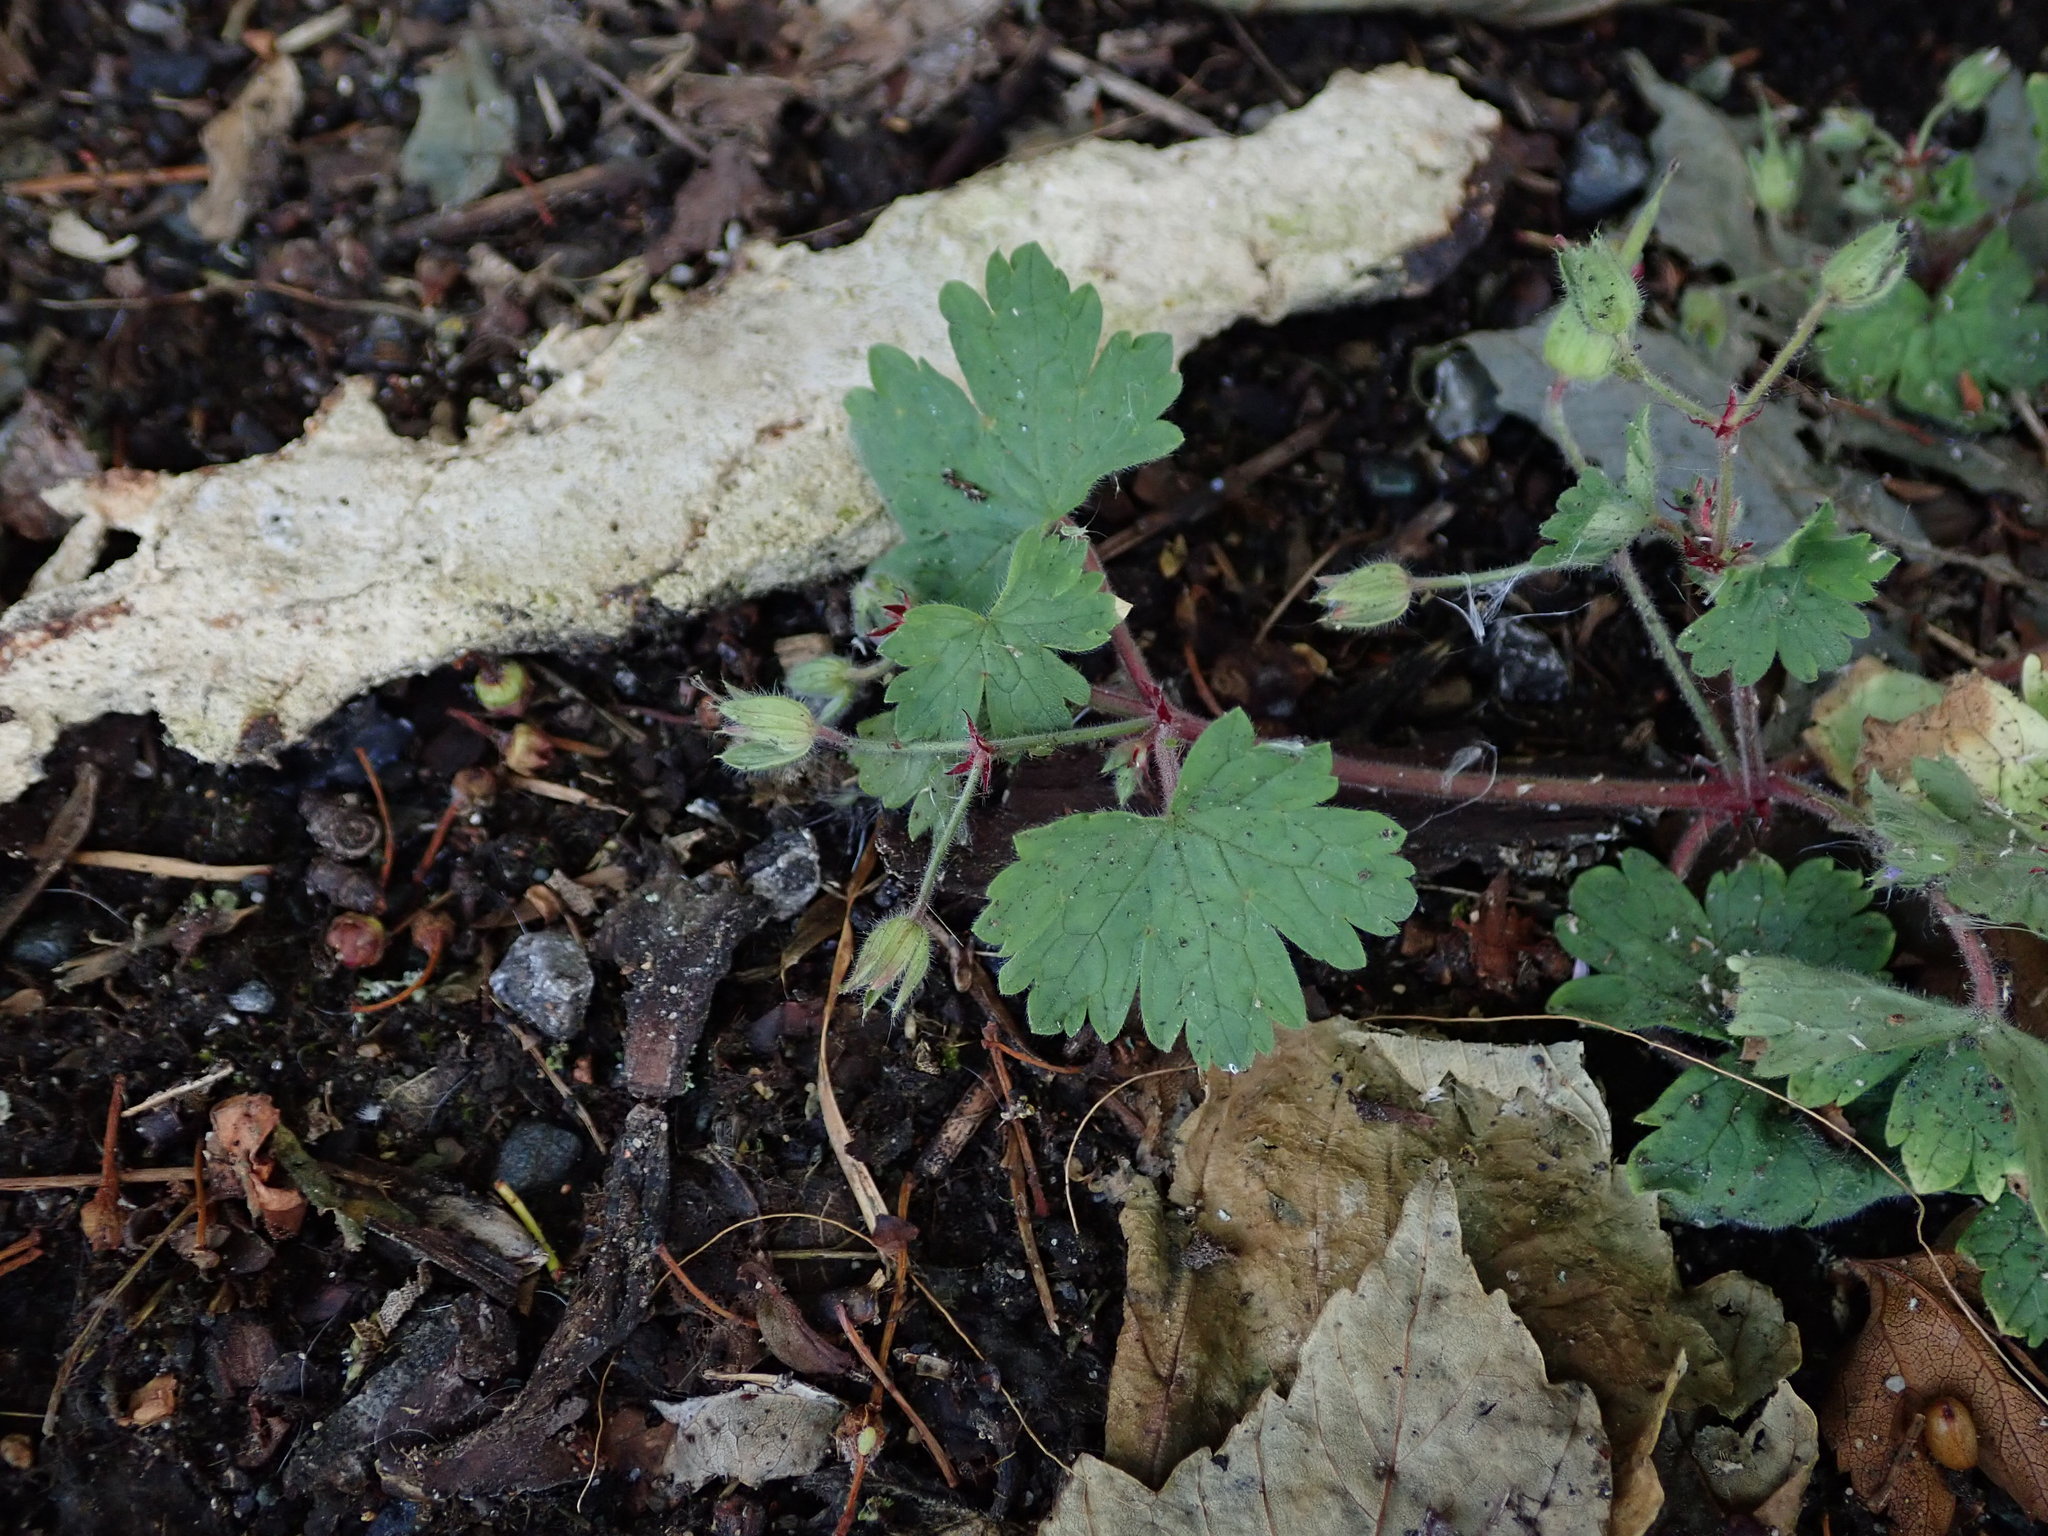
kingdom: Plantae
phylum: Tracheophyta
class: Magnoliopsida
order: Geraniales
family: Geraniaceae
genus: Geranium
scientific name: Geranium rotundifolium
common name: Round-leaved crane's-bill
